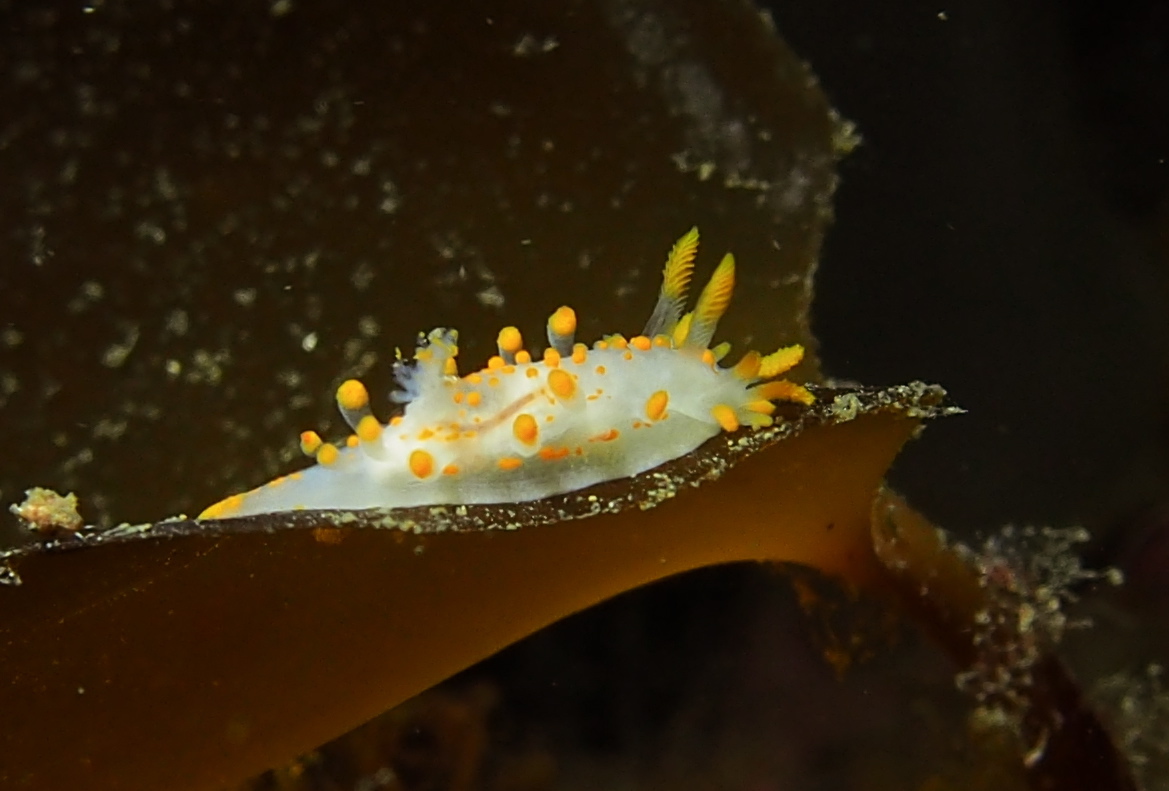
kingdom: Animalia
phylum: Mollusca
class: Gastropoda
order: Nudibranchia
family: Polyceridae
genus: Limacia
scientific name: Limacia clavigera
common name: Orange-clubbed sea slug
